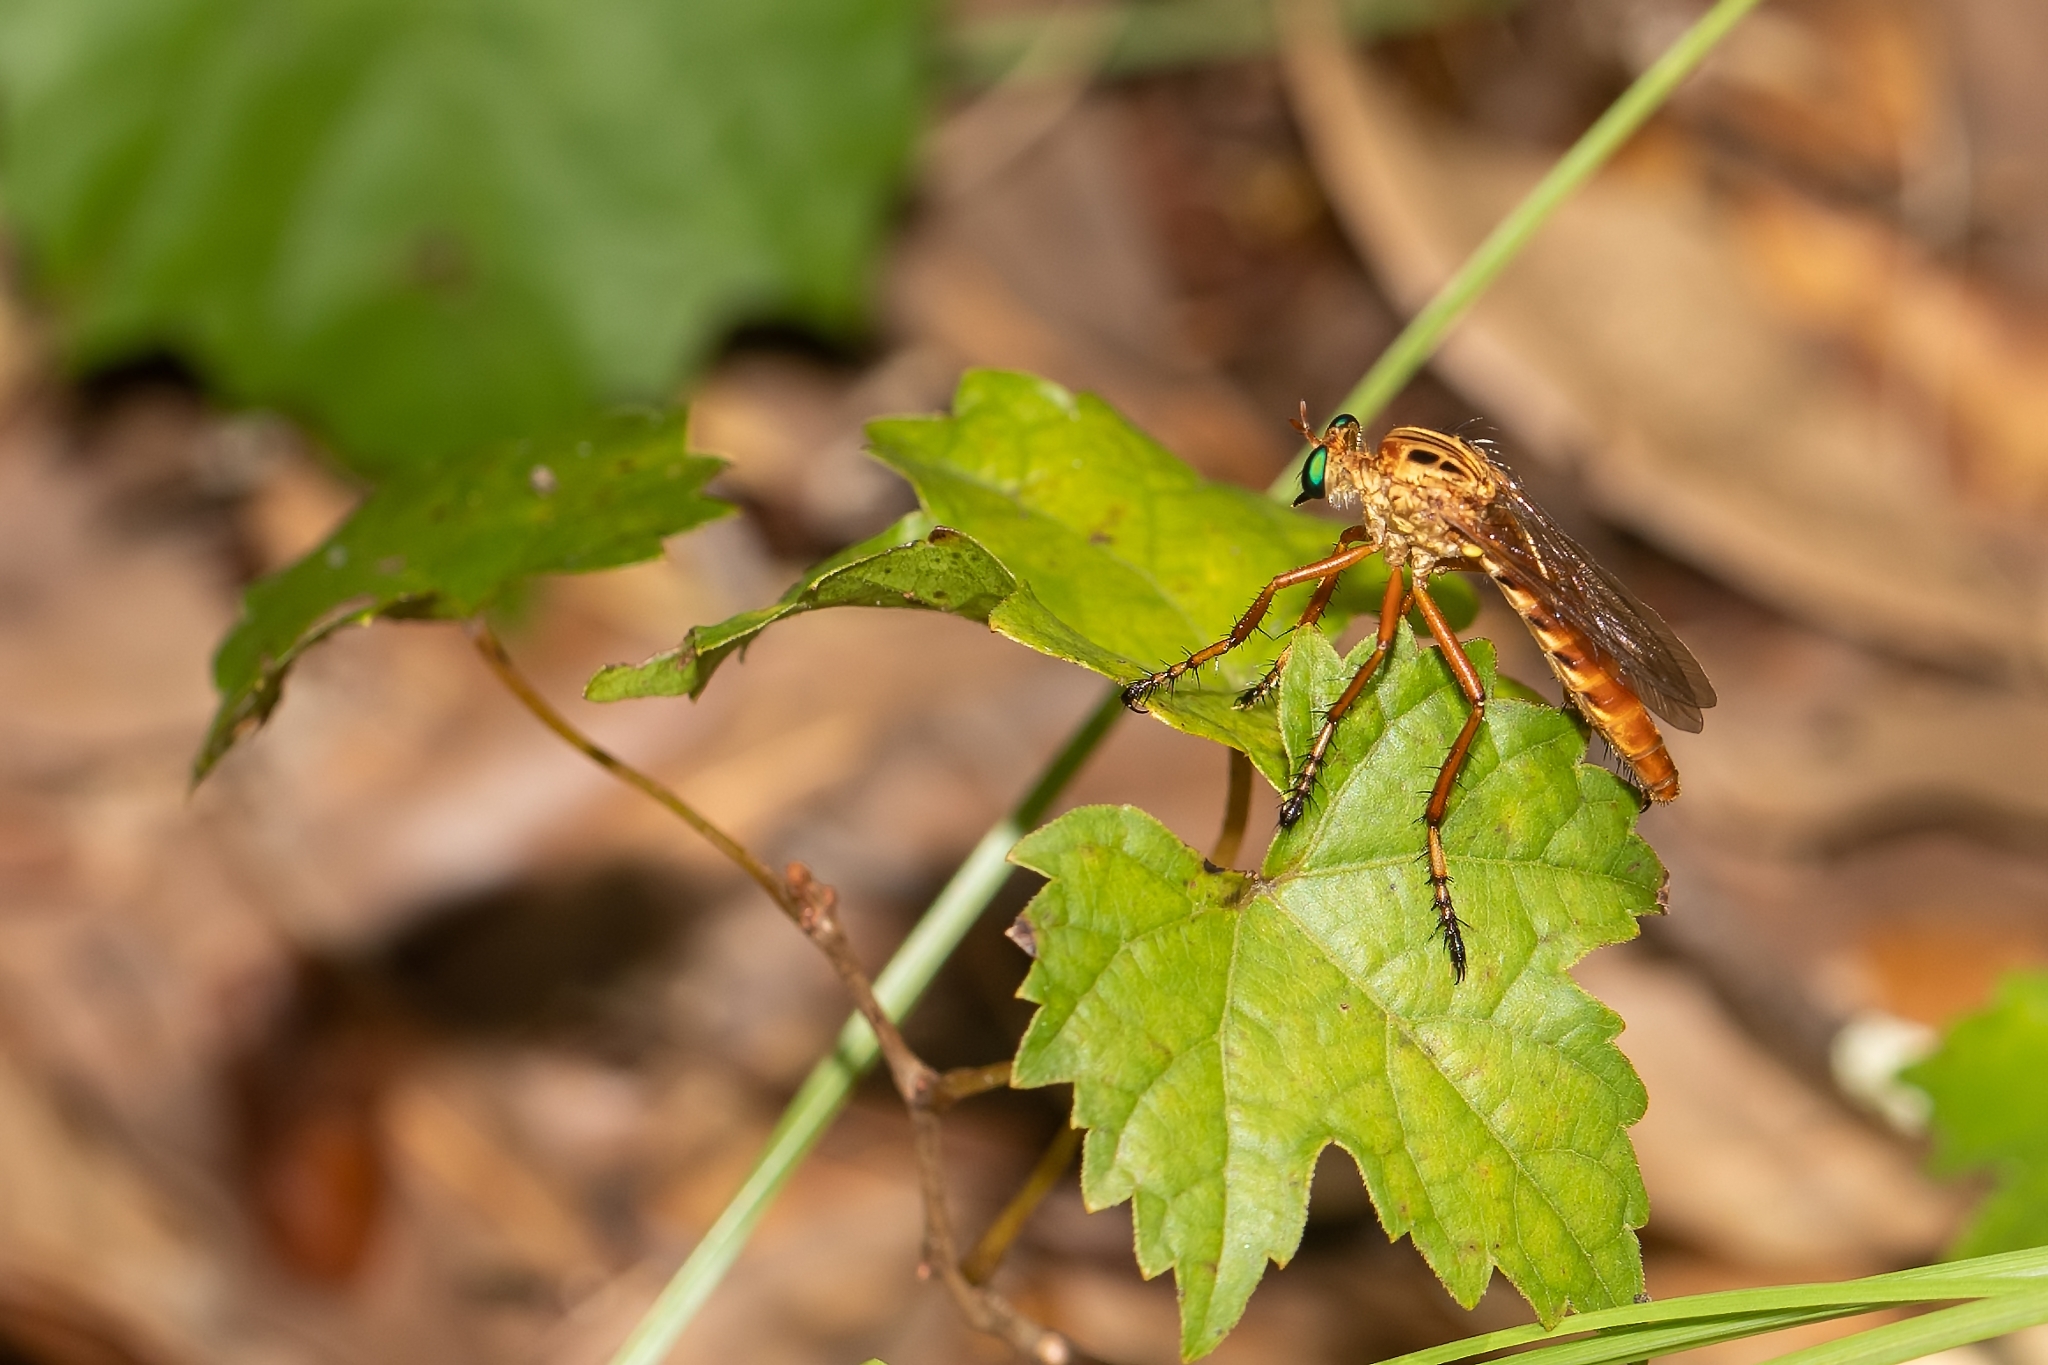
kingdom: Animalia
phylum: Arthropoda
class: Insecta
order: Diptera
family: Asilidae
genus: Diogmites
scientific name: Diogmites esuriens
